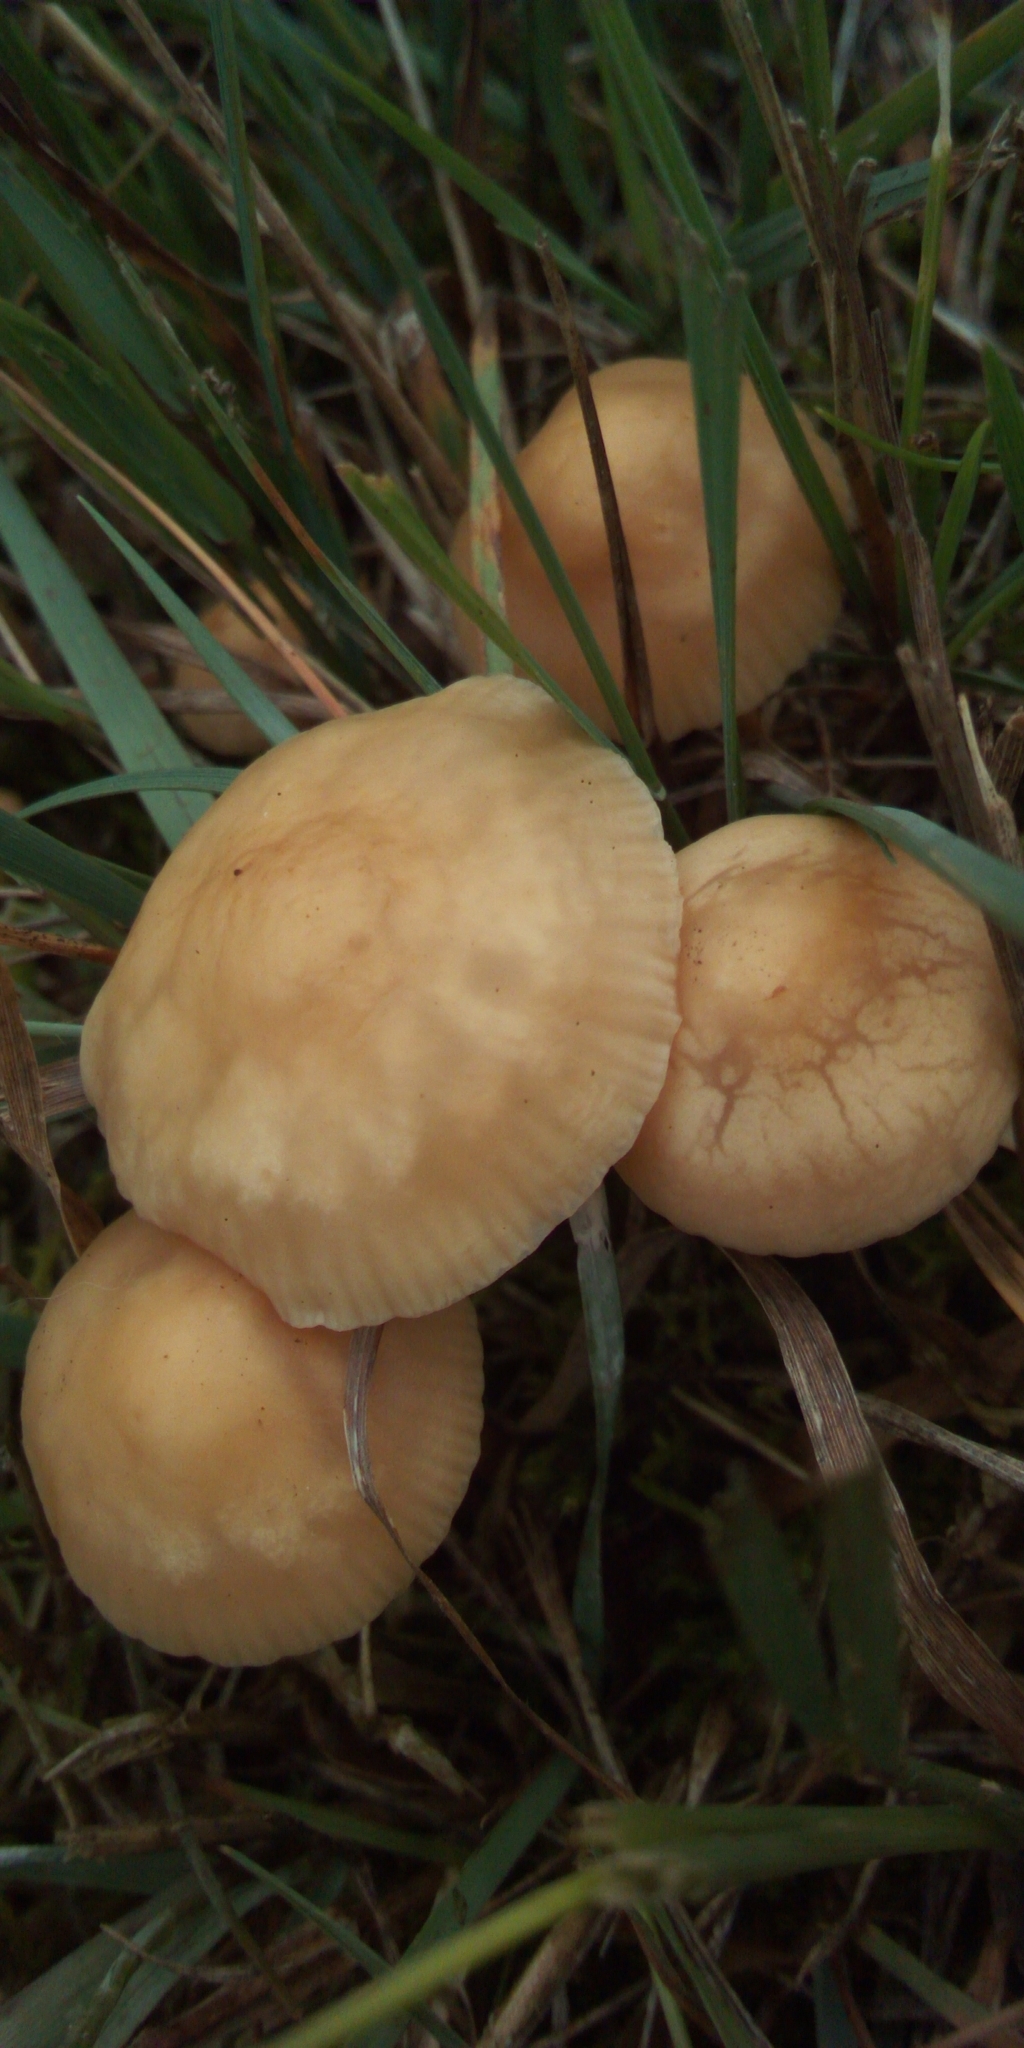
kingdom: Fungi
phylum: Basidiomycota
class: Agaricomycetes
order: Agaricales
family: Marasmiaceae
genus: Marasmius
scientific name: Marasmius oreades
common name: Fairy ring champignon
